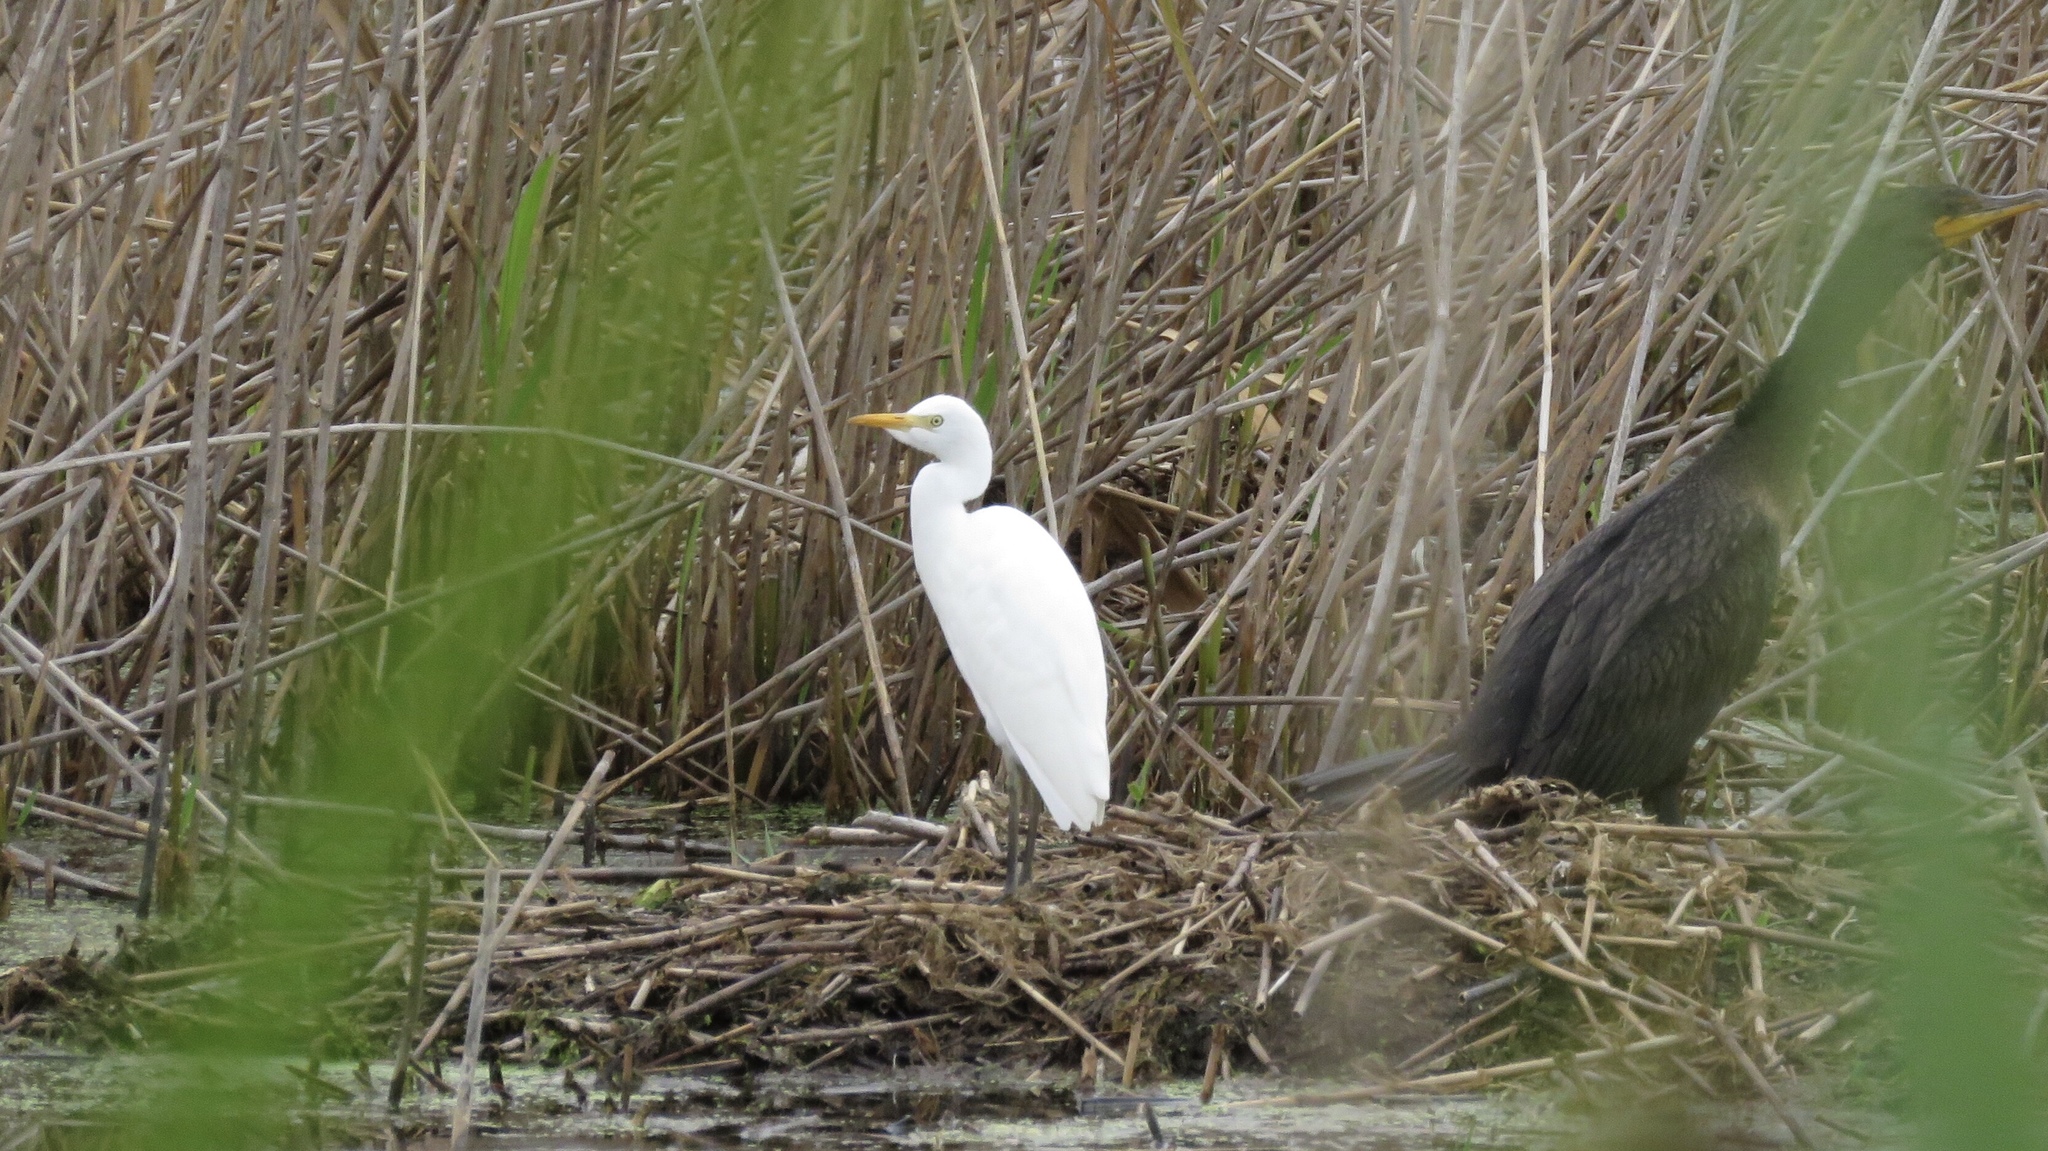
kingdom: Animalia
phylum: Chordata
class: Aves
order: Pelecaniformes
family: Ardeidae
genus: Bubulcus
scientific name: Bubulcus ibis
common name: Cattle egret
